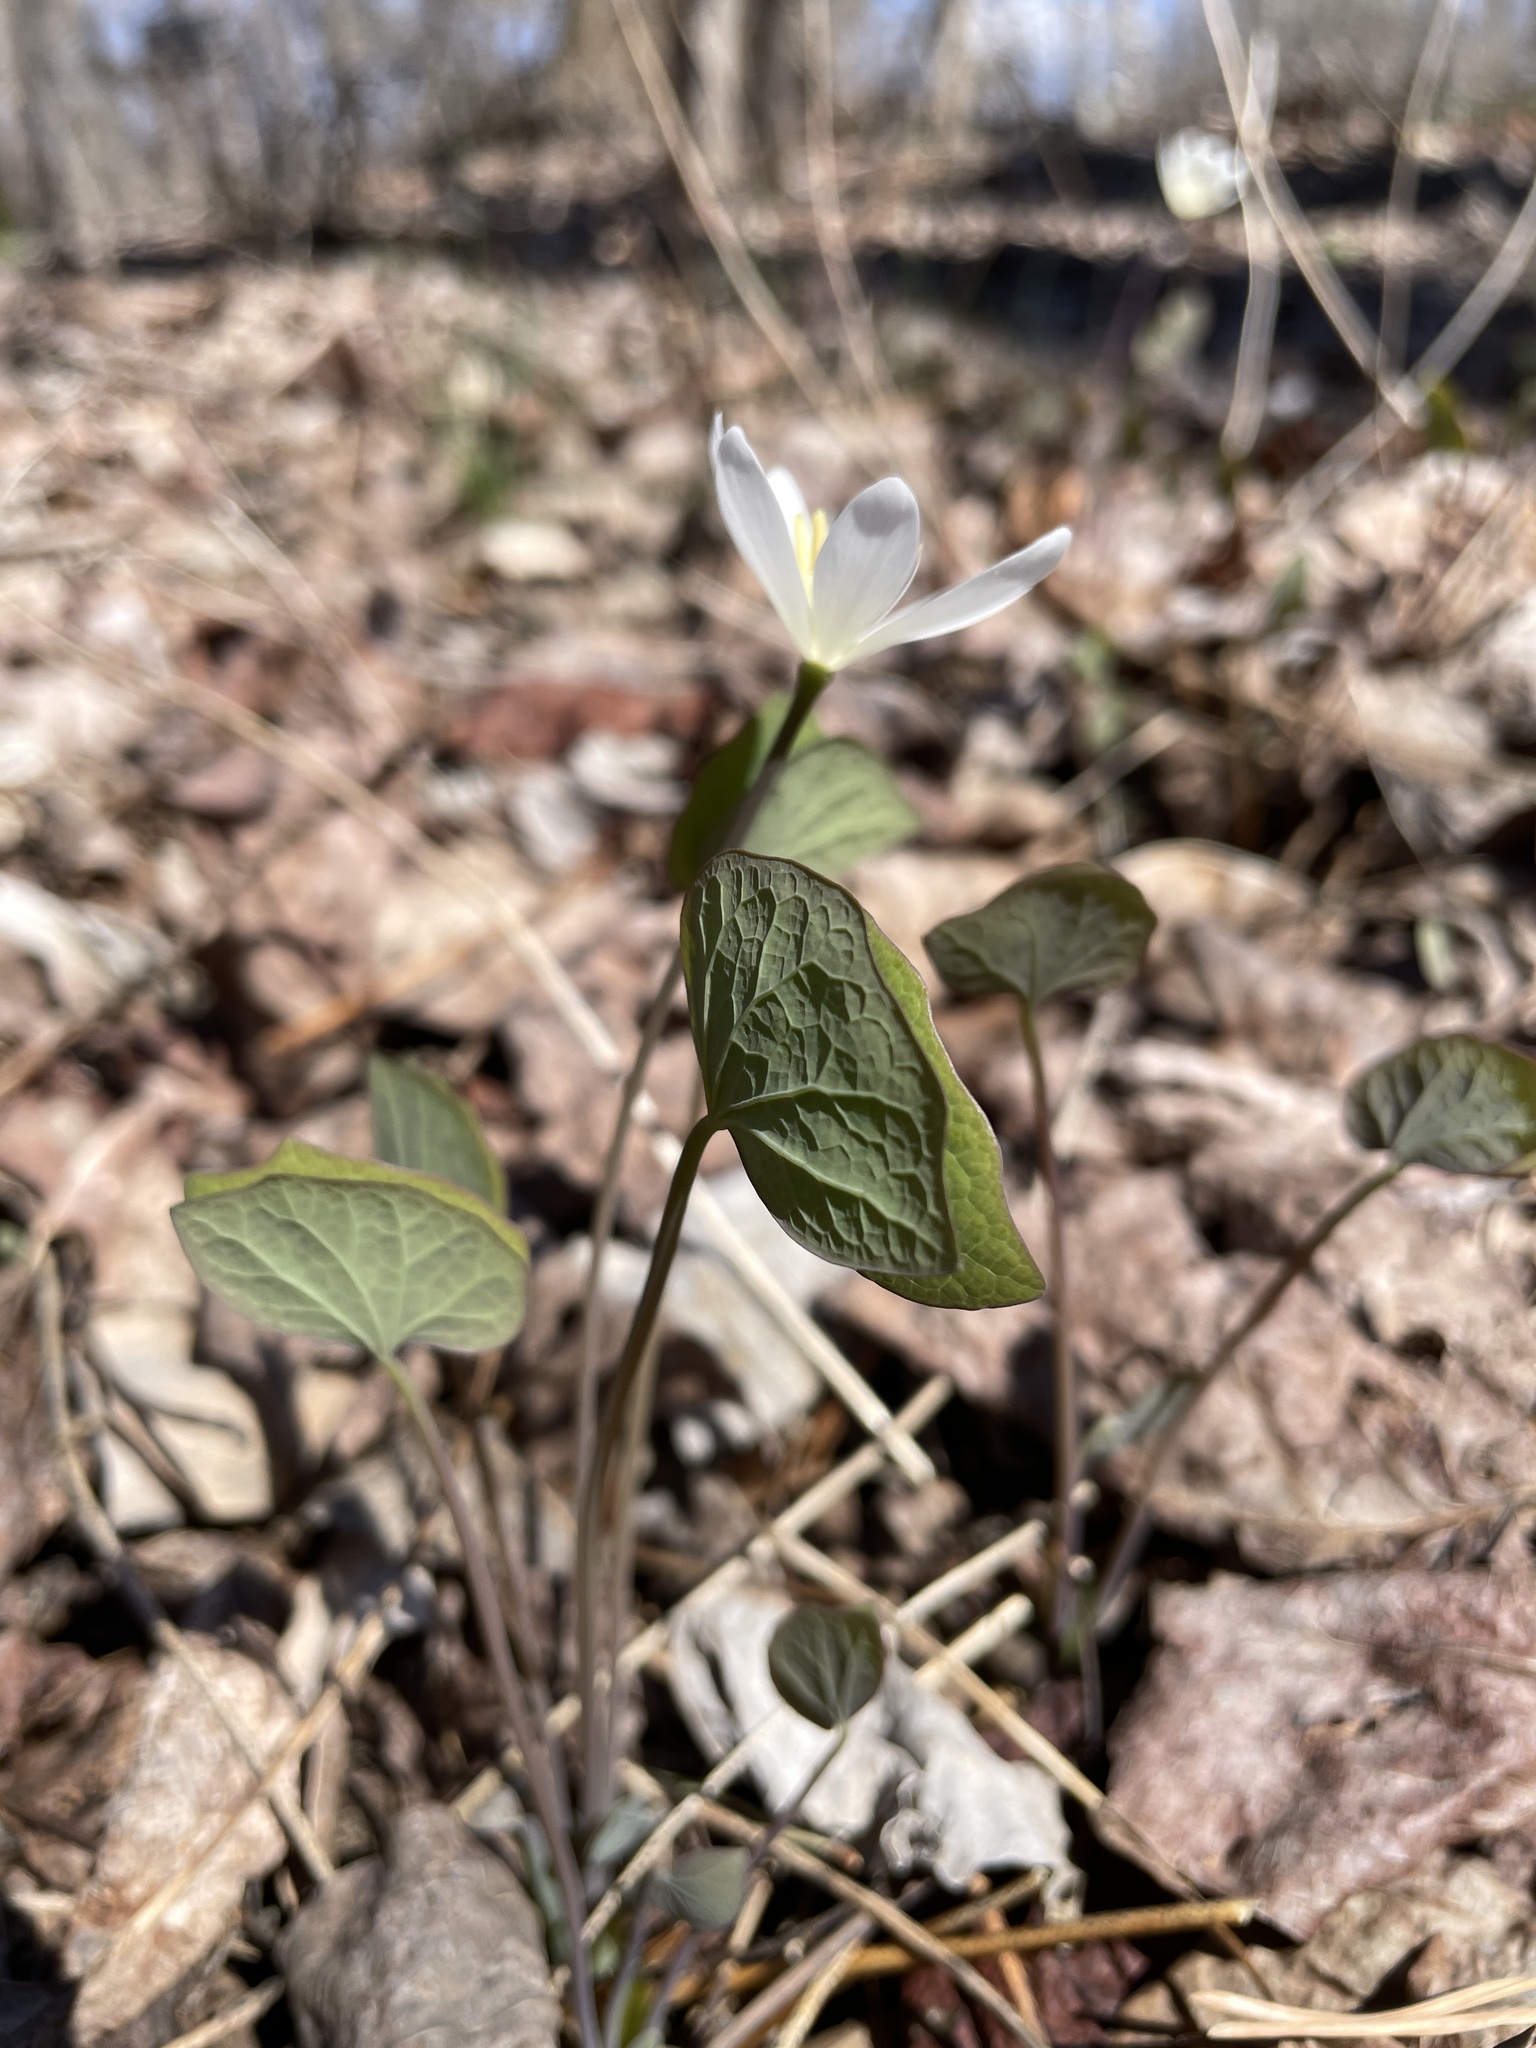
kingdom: Plantae
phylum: Tracheophyta
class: Magnoliopsida
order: Ranunculales
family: Berberidaceae
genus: Jeffersonia
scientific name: Jeffersonia diphylla
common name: Rheumatism-root
